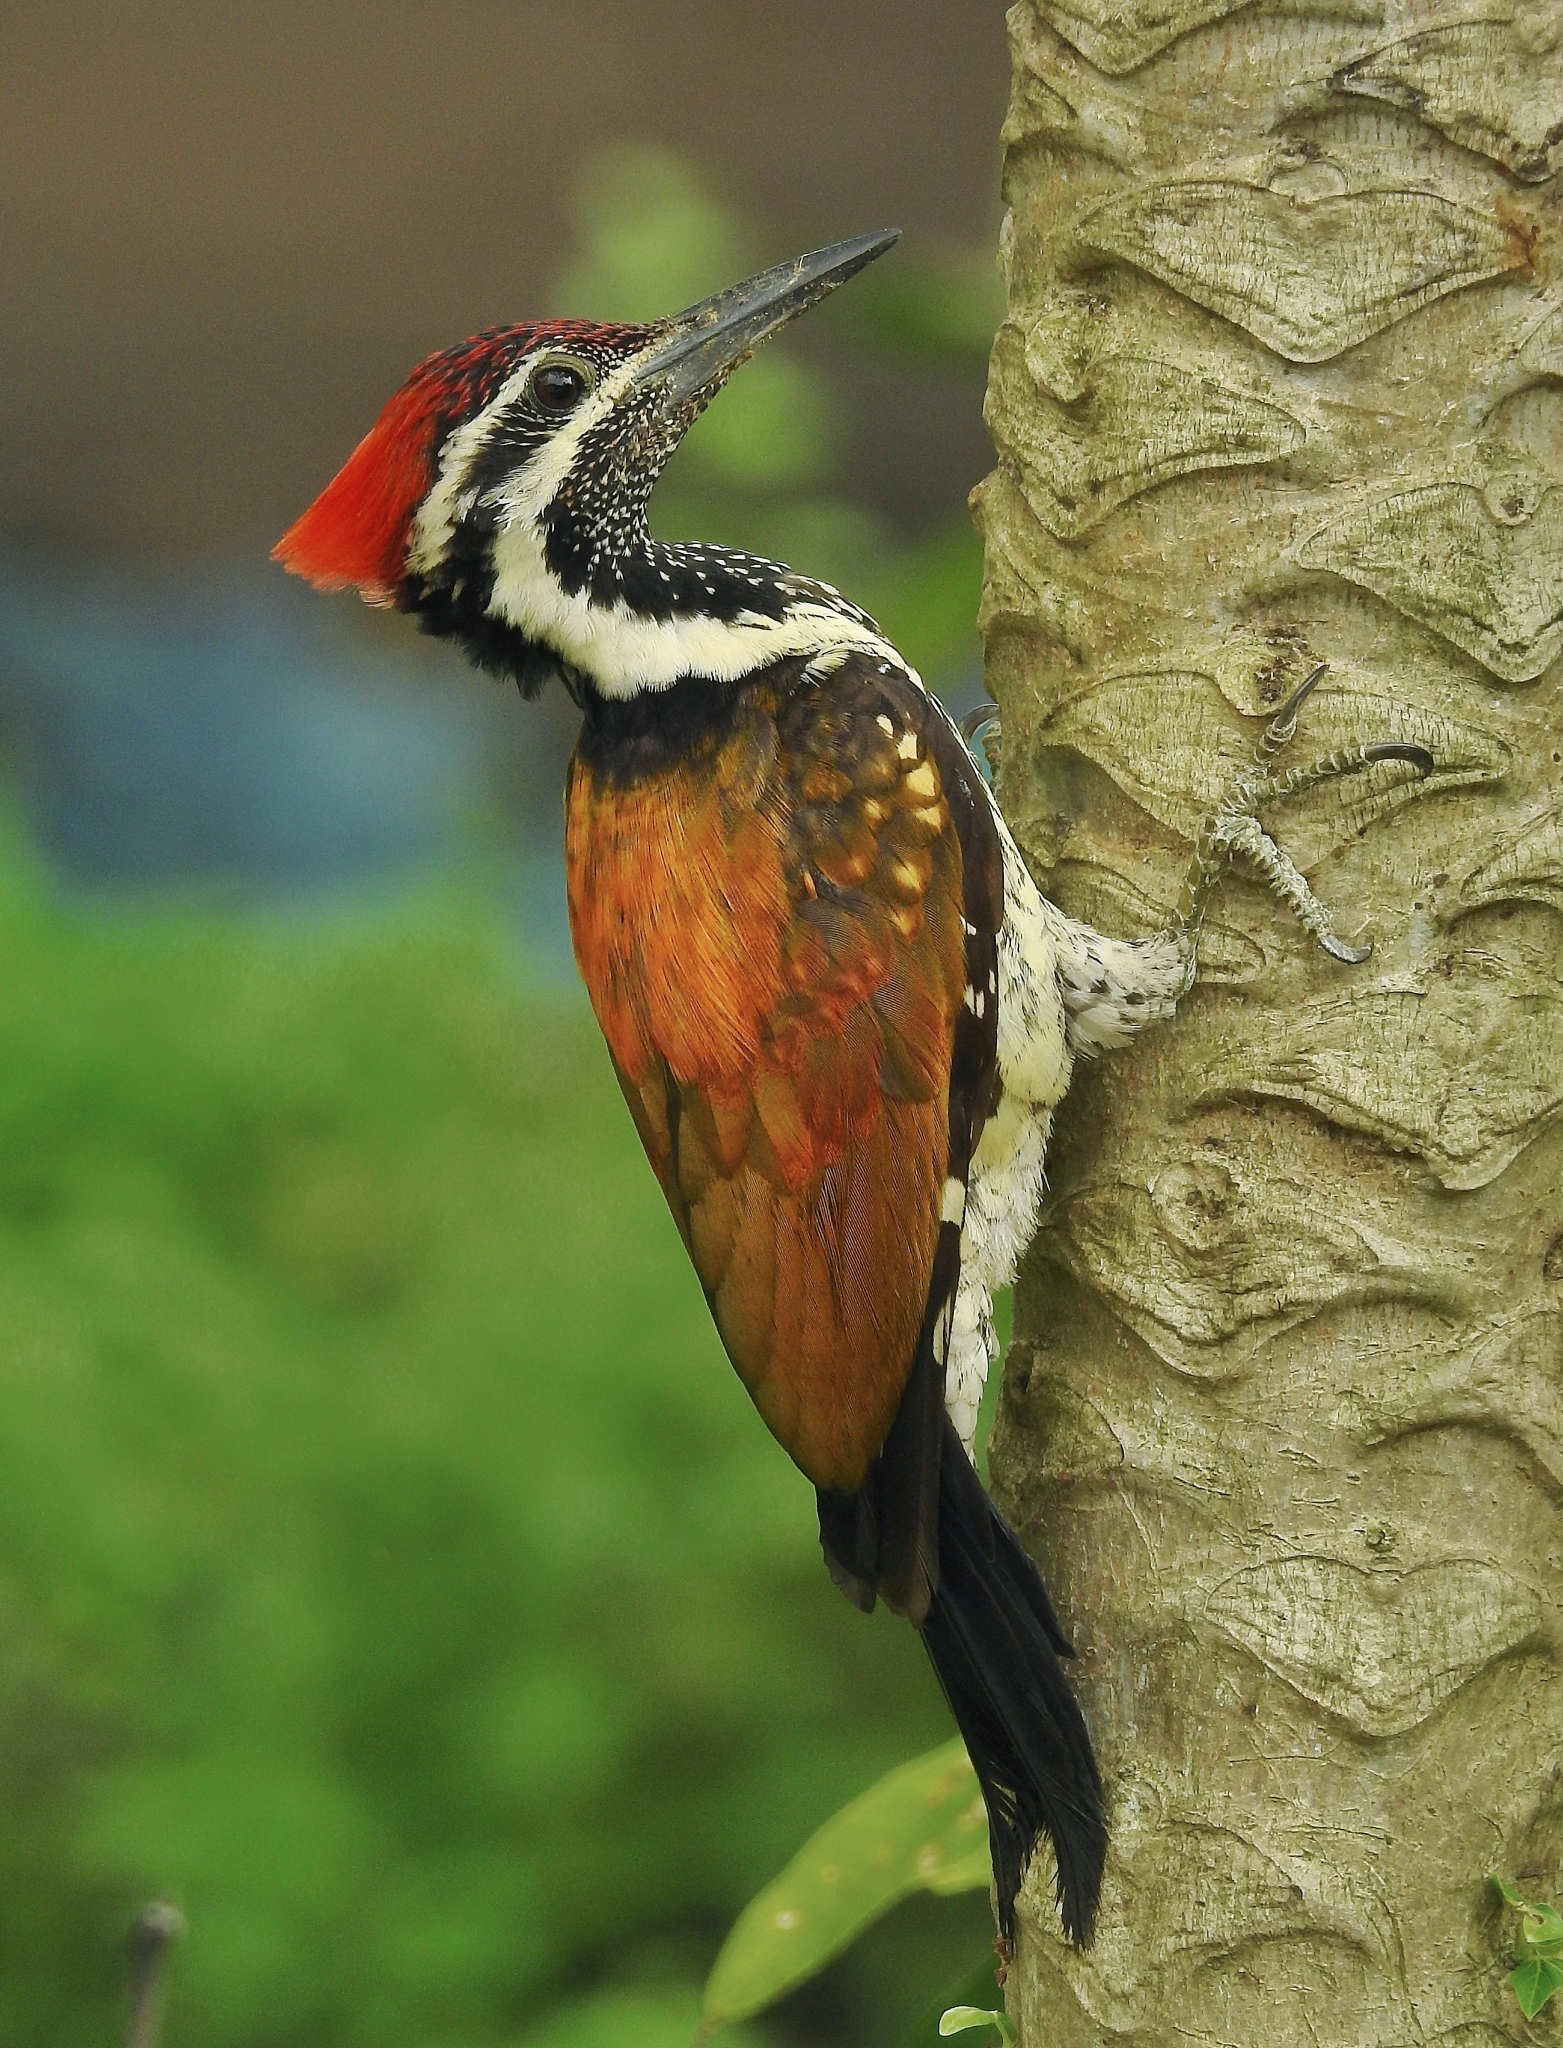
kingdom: Animalia
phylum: Chordata
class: Aves
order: Piciformes
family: Picidae
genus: Dinopium
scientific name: Dinopium benghalense
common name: Black-rumped flameback
